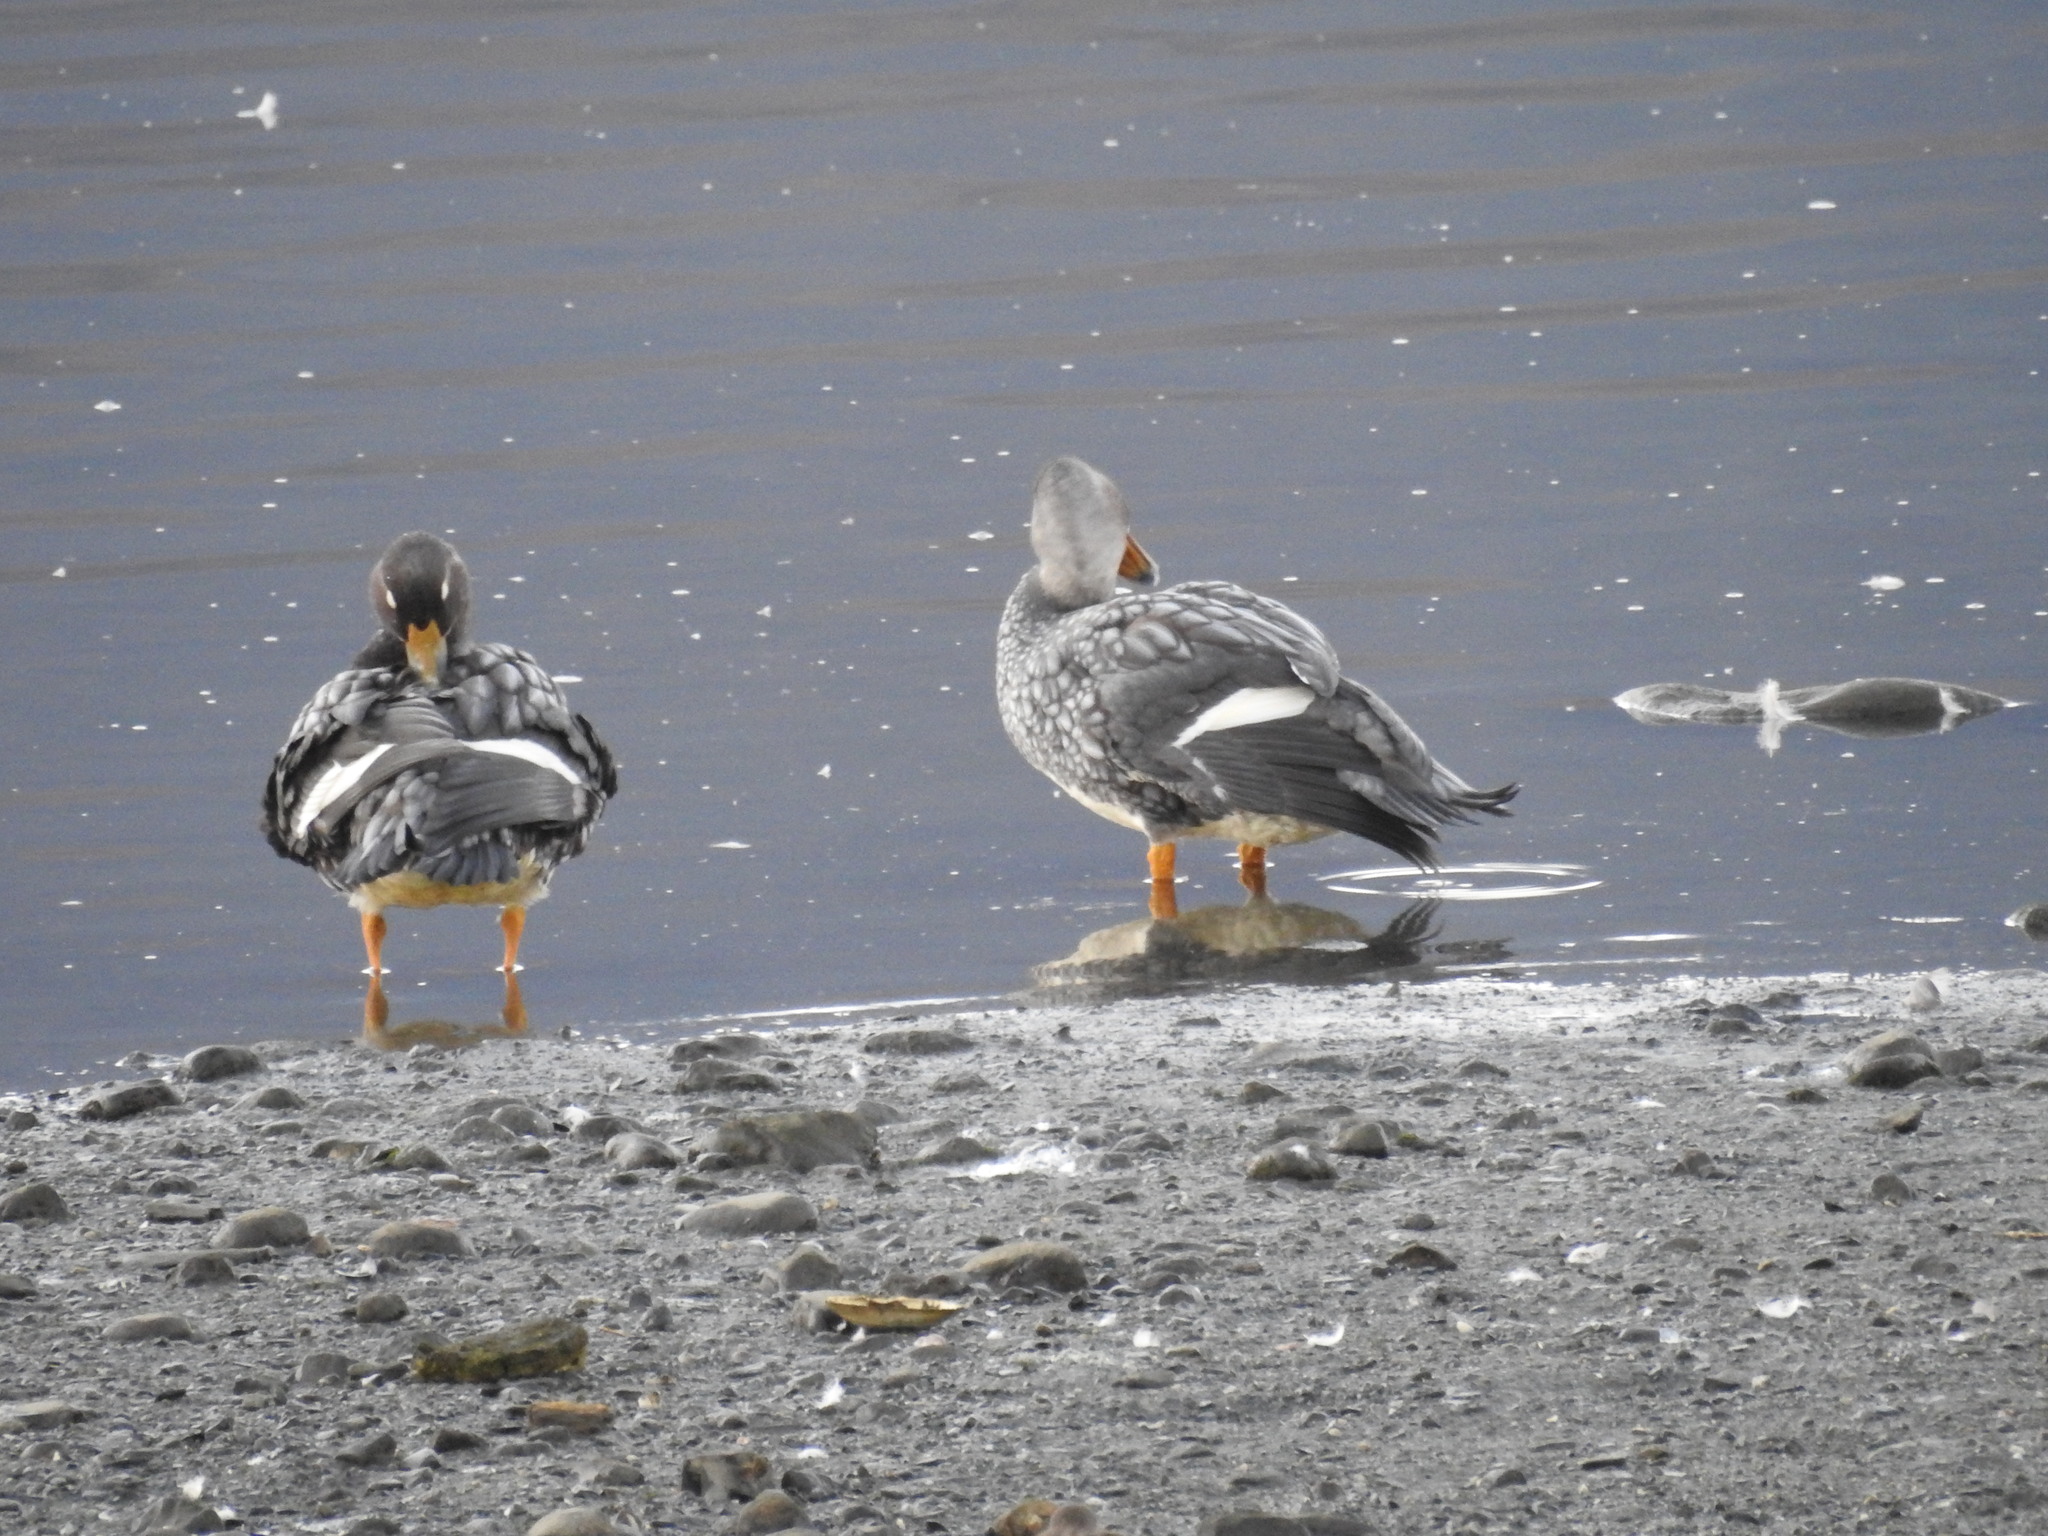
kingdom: Animalia
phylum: Chordata
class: Aves
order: Anseriformes
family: Anatidae
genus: Tachyeres
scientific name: Tachyeres patachonicus
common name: Flying steamer duck
